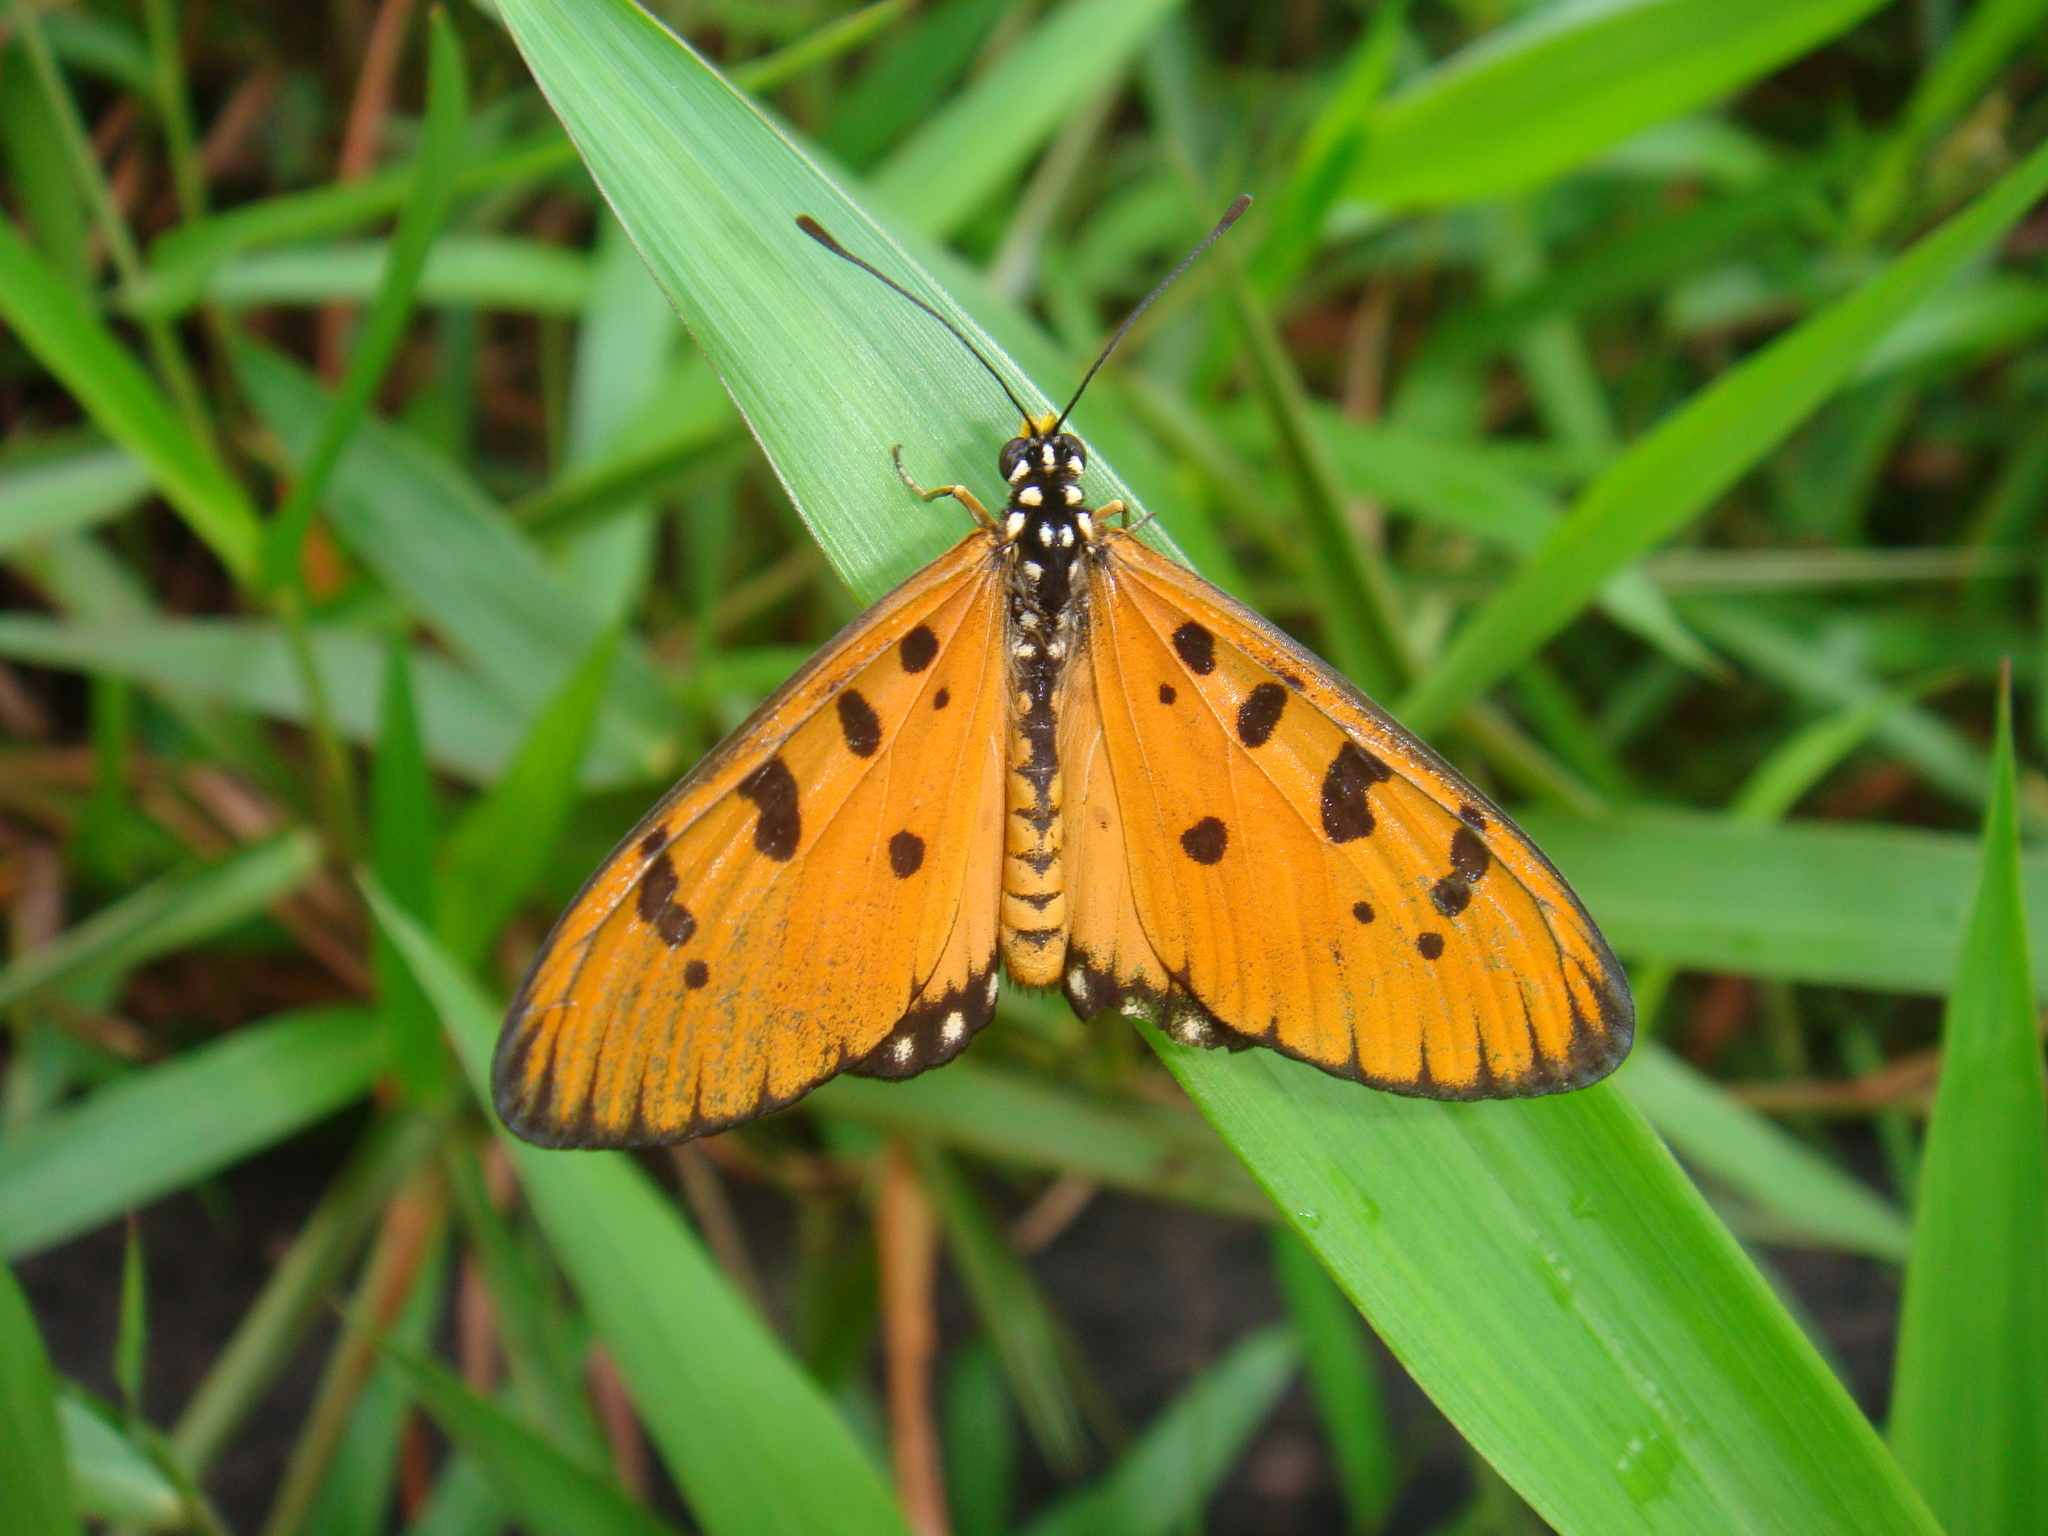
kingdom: Animalia
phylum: Arthropoda
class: Insecta
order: Lepidoptera
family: Nymphalidae
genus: Acraea
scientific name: Acraea terpsicore
